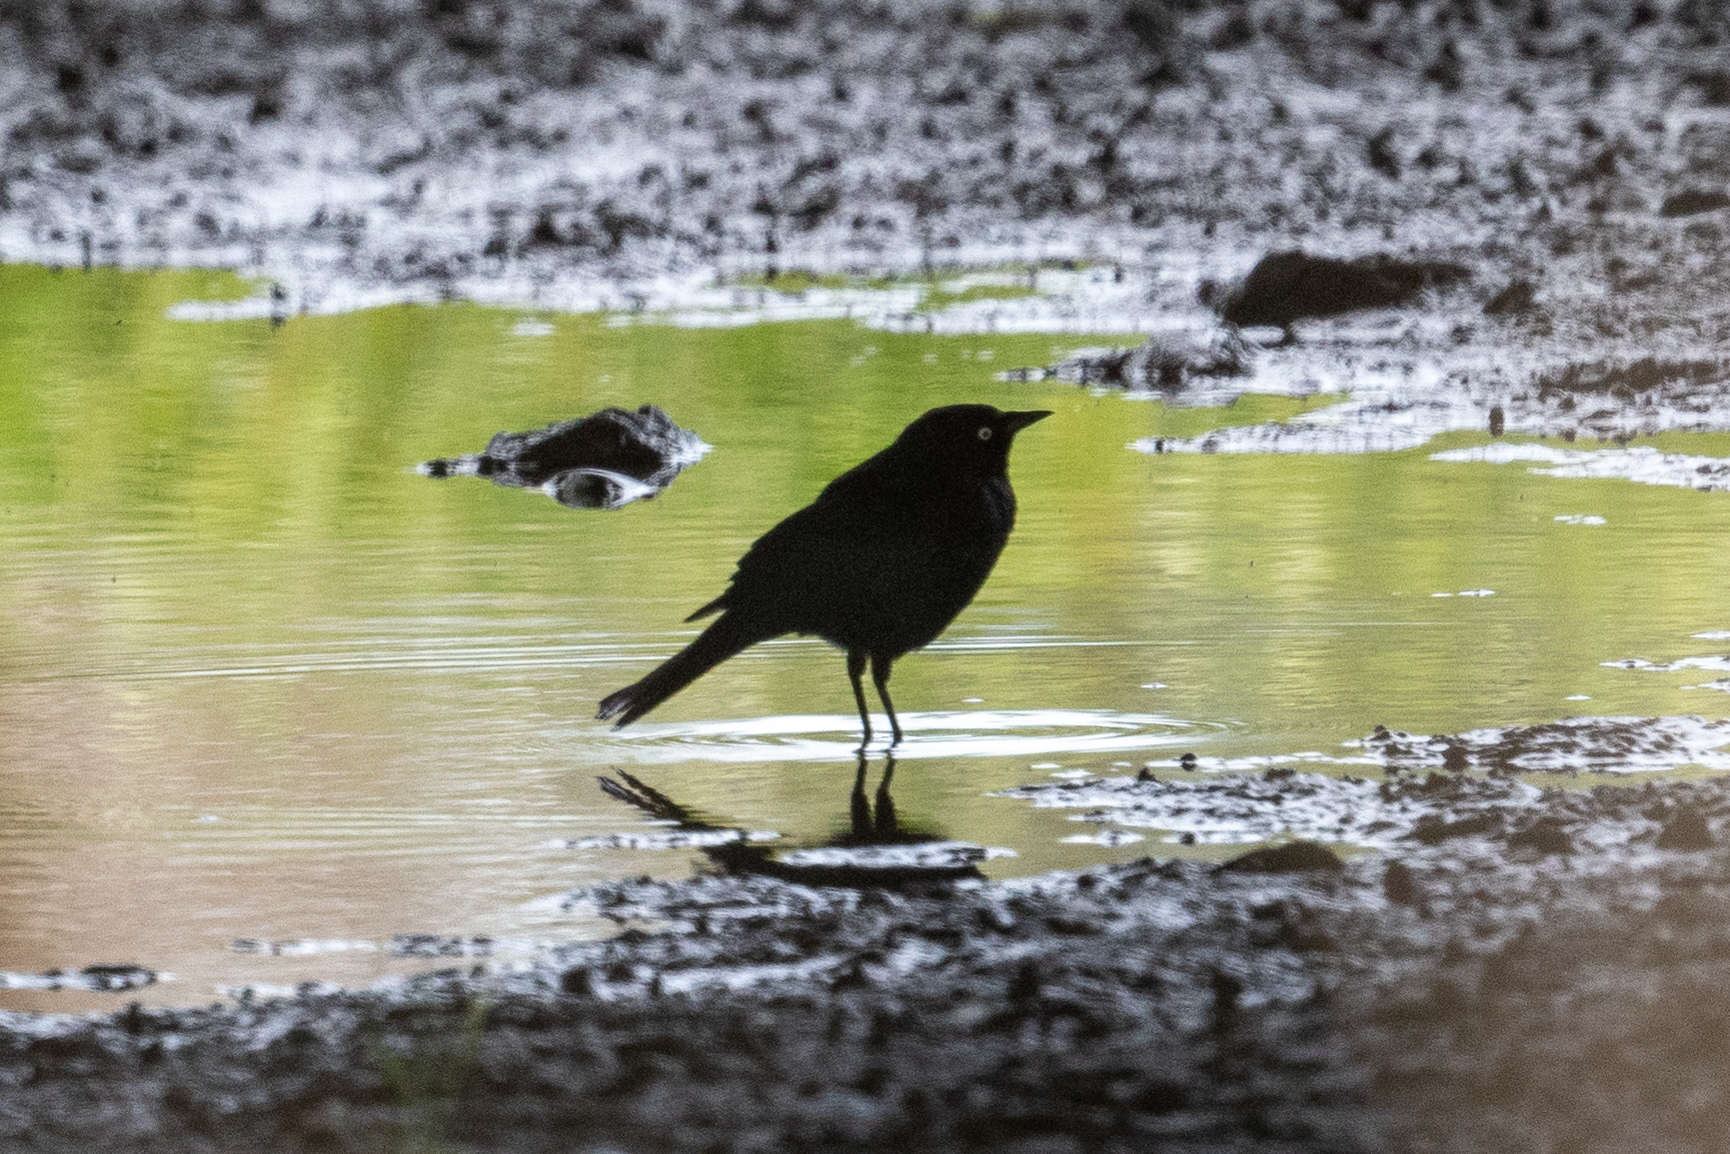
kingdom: Animalia
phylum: Chordata
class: Aves
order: Passeriformes
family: Icteridae
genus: Euphagus
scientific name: Euphagus cyanocephalus
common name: Brewer's blackbird
